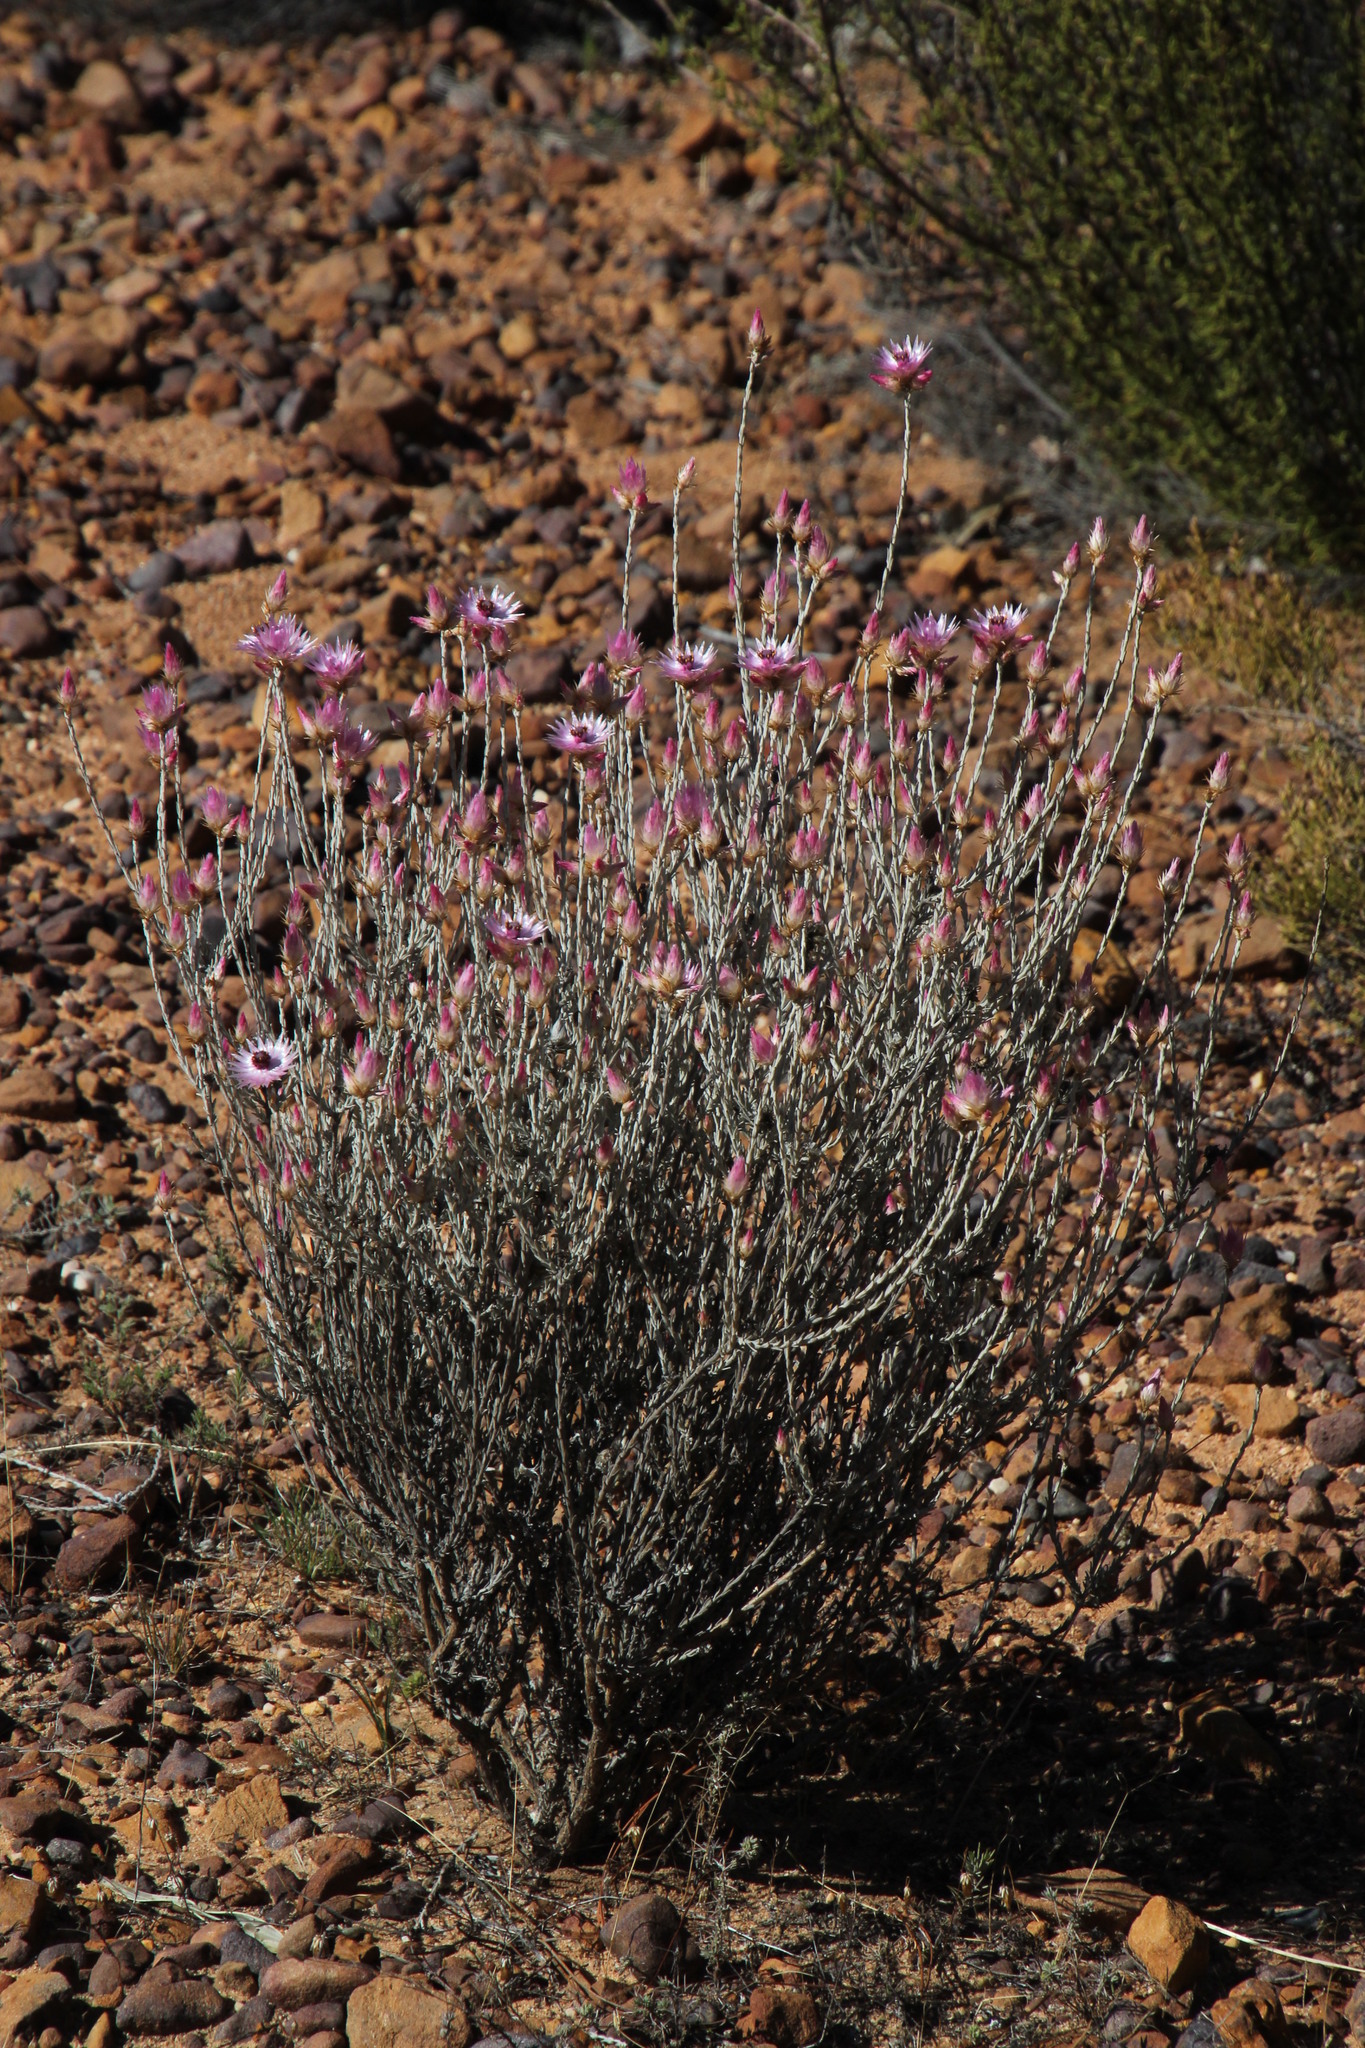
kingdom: Plantae
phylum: Tracheophyta
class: Magnoliopsida
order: Asterales
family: Asteraceae
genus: Syncarpha
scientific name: Syncarpha canescens
